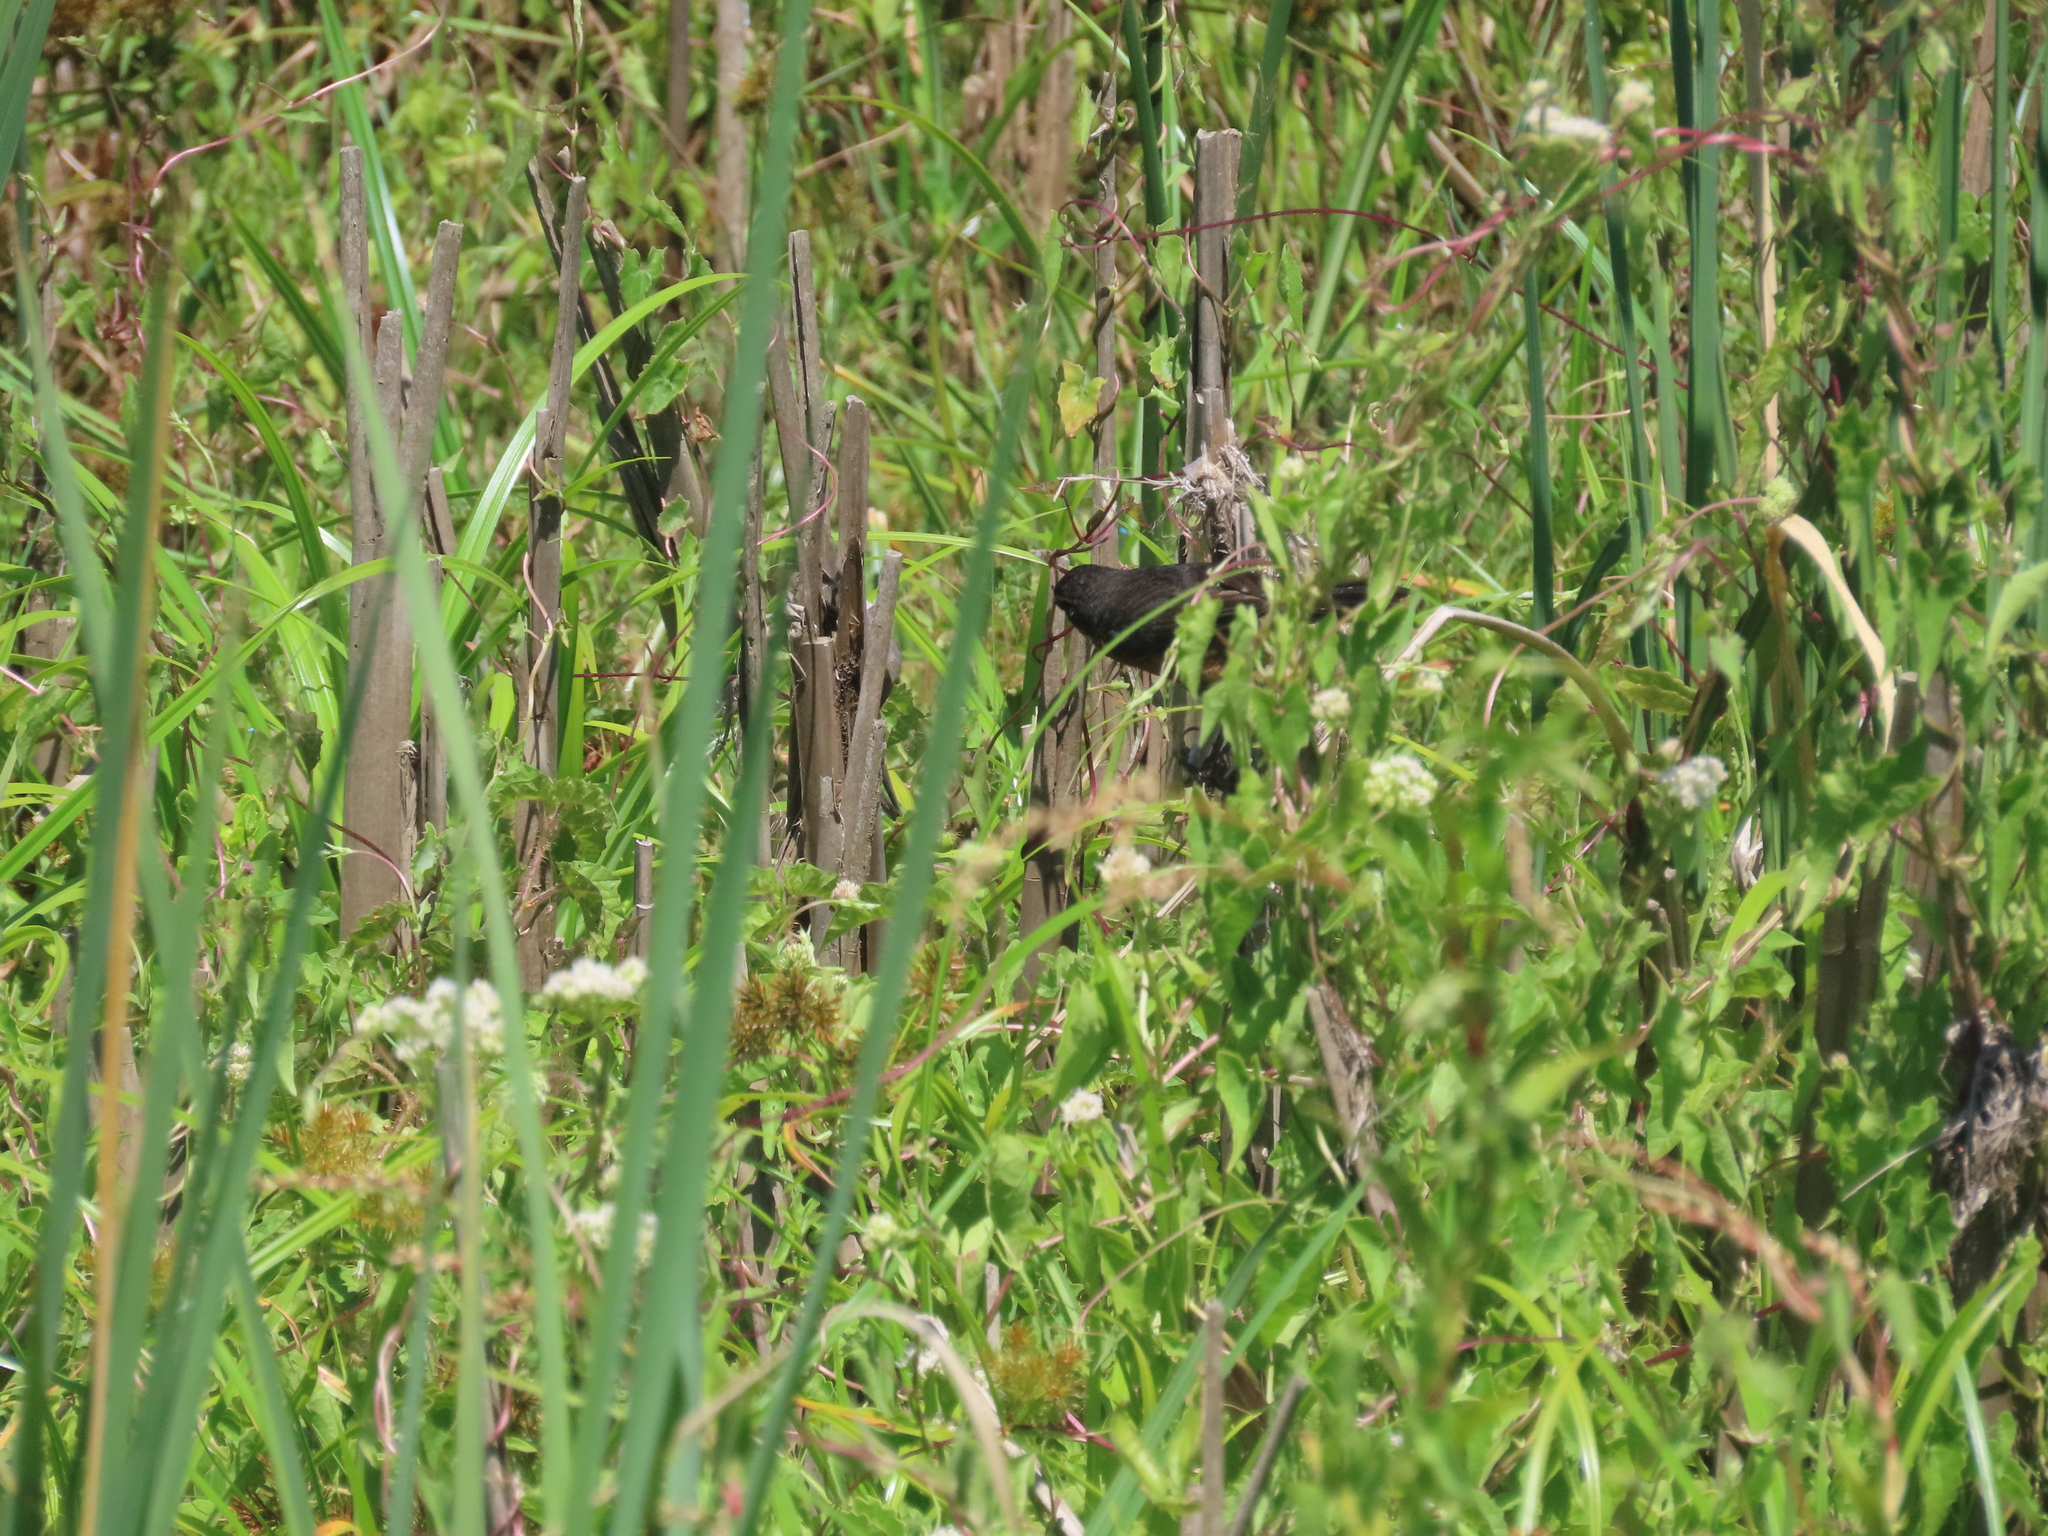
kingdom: Animalia
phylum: Chordata
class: Aves
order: Passeriformes
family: Thraupidae
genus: Poospiza
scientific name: Poospiza nigrorufa
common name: Black-and-rufous warbling finch
